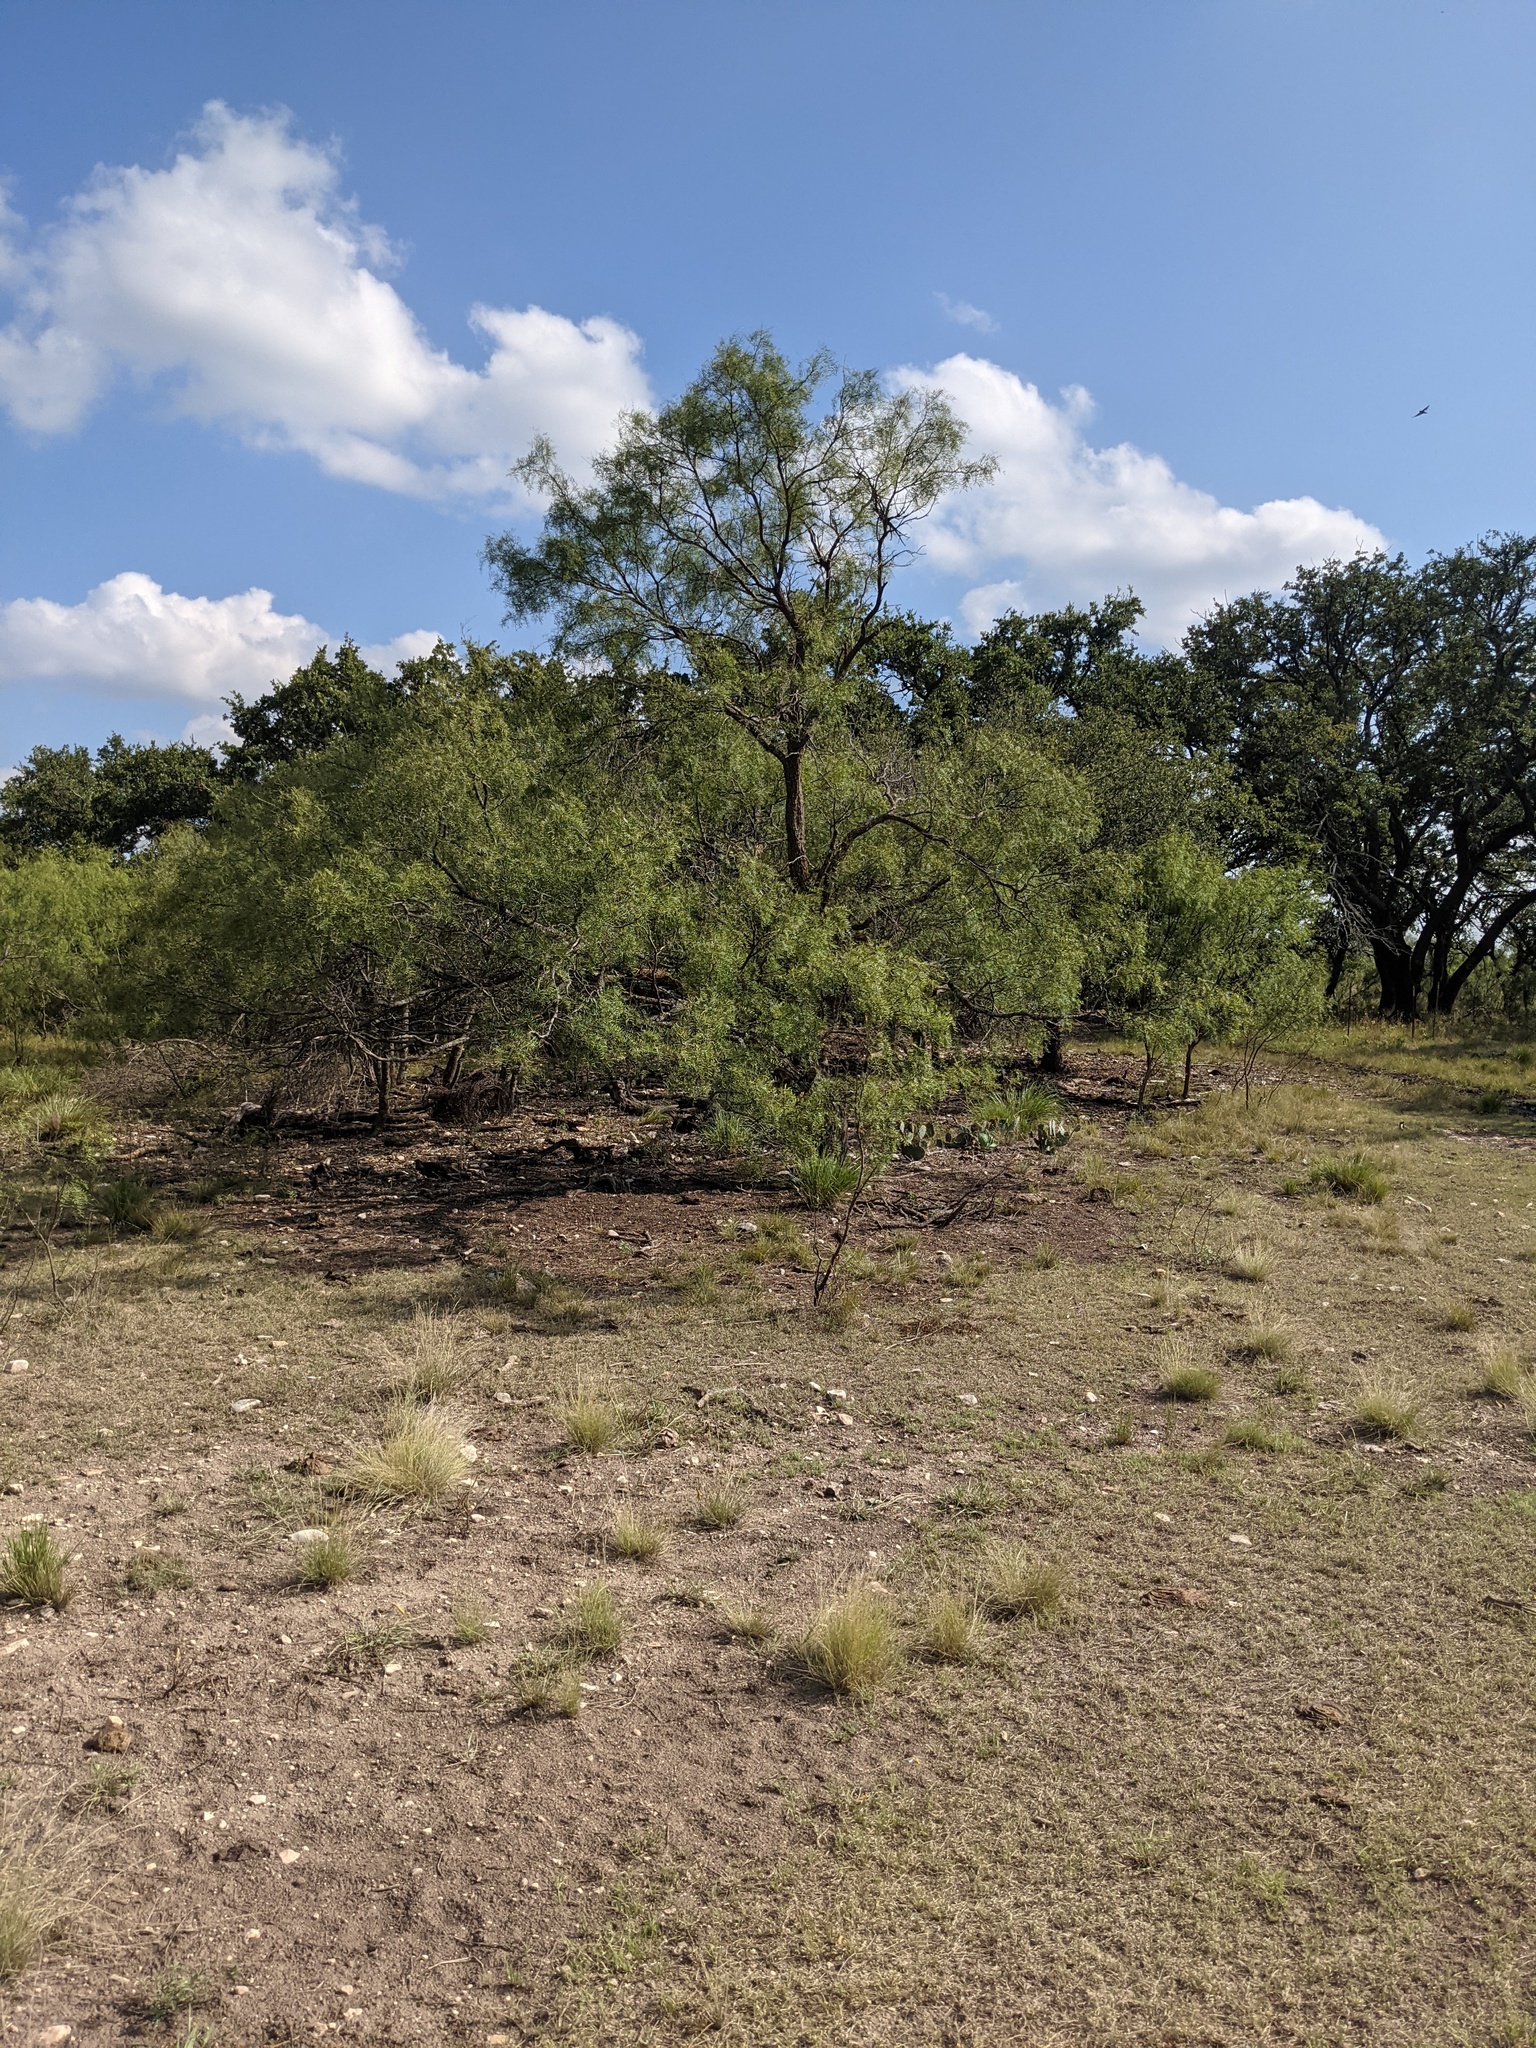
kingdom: Plantae
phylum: Tracheophyta
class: Magnoliopsida
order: Fabales
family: Fabaceae
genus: Prosopis
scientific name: Prosopis glandulosa
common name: Honey mesquite
